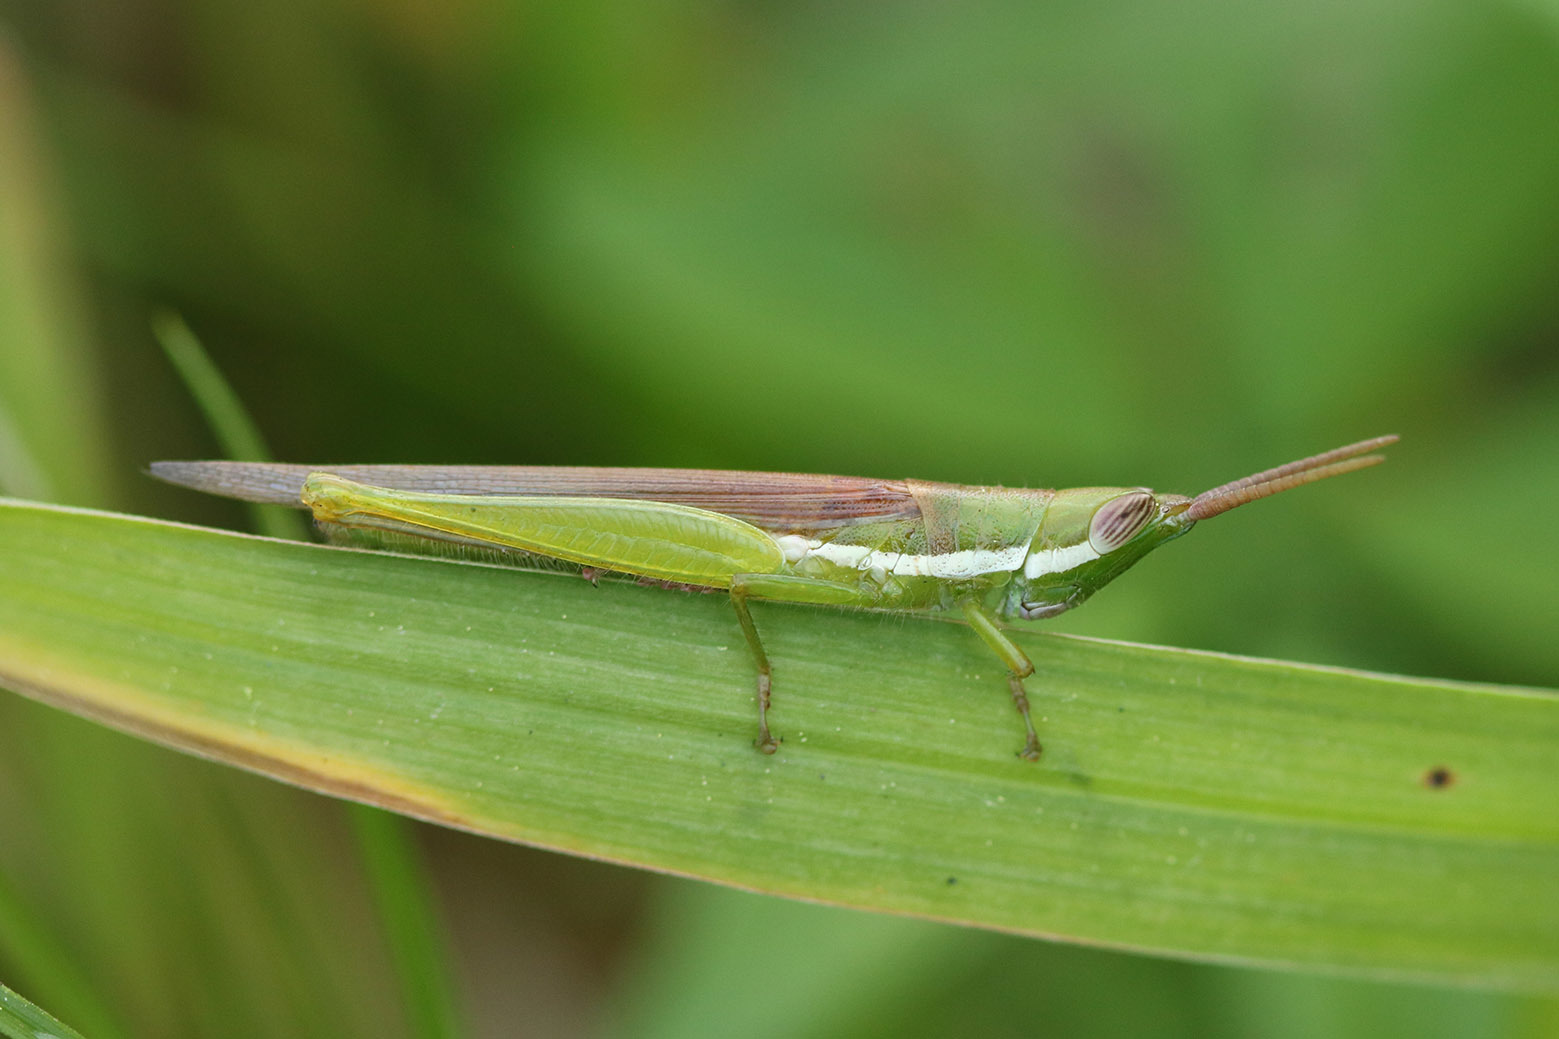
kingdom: Animalia
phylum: Arthropoda
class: Insecta
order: Orthoptera
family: Acrididae
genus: Tucayaca
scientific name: Tucayaca gracilis
